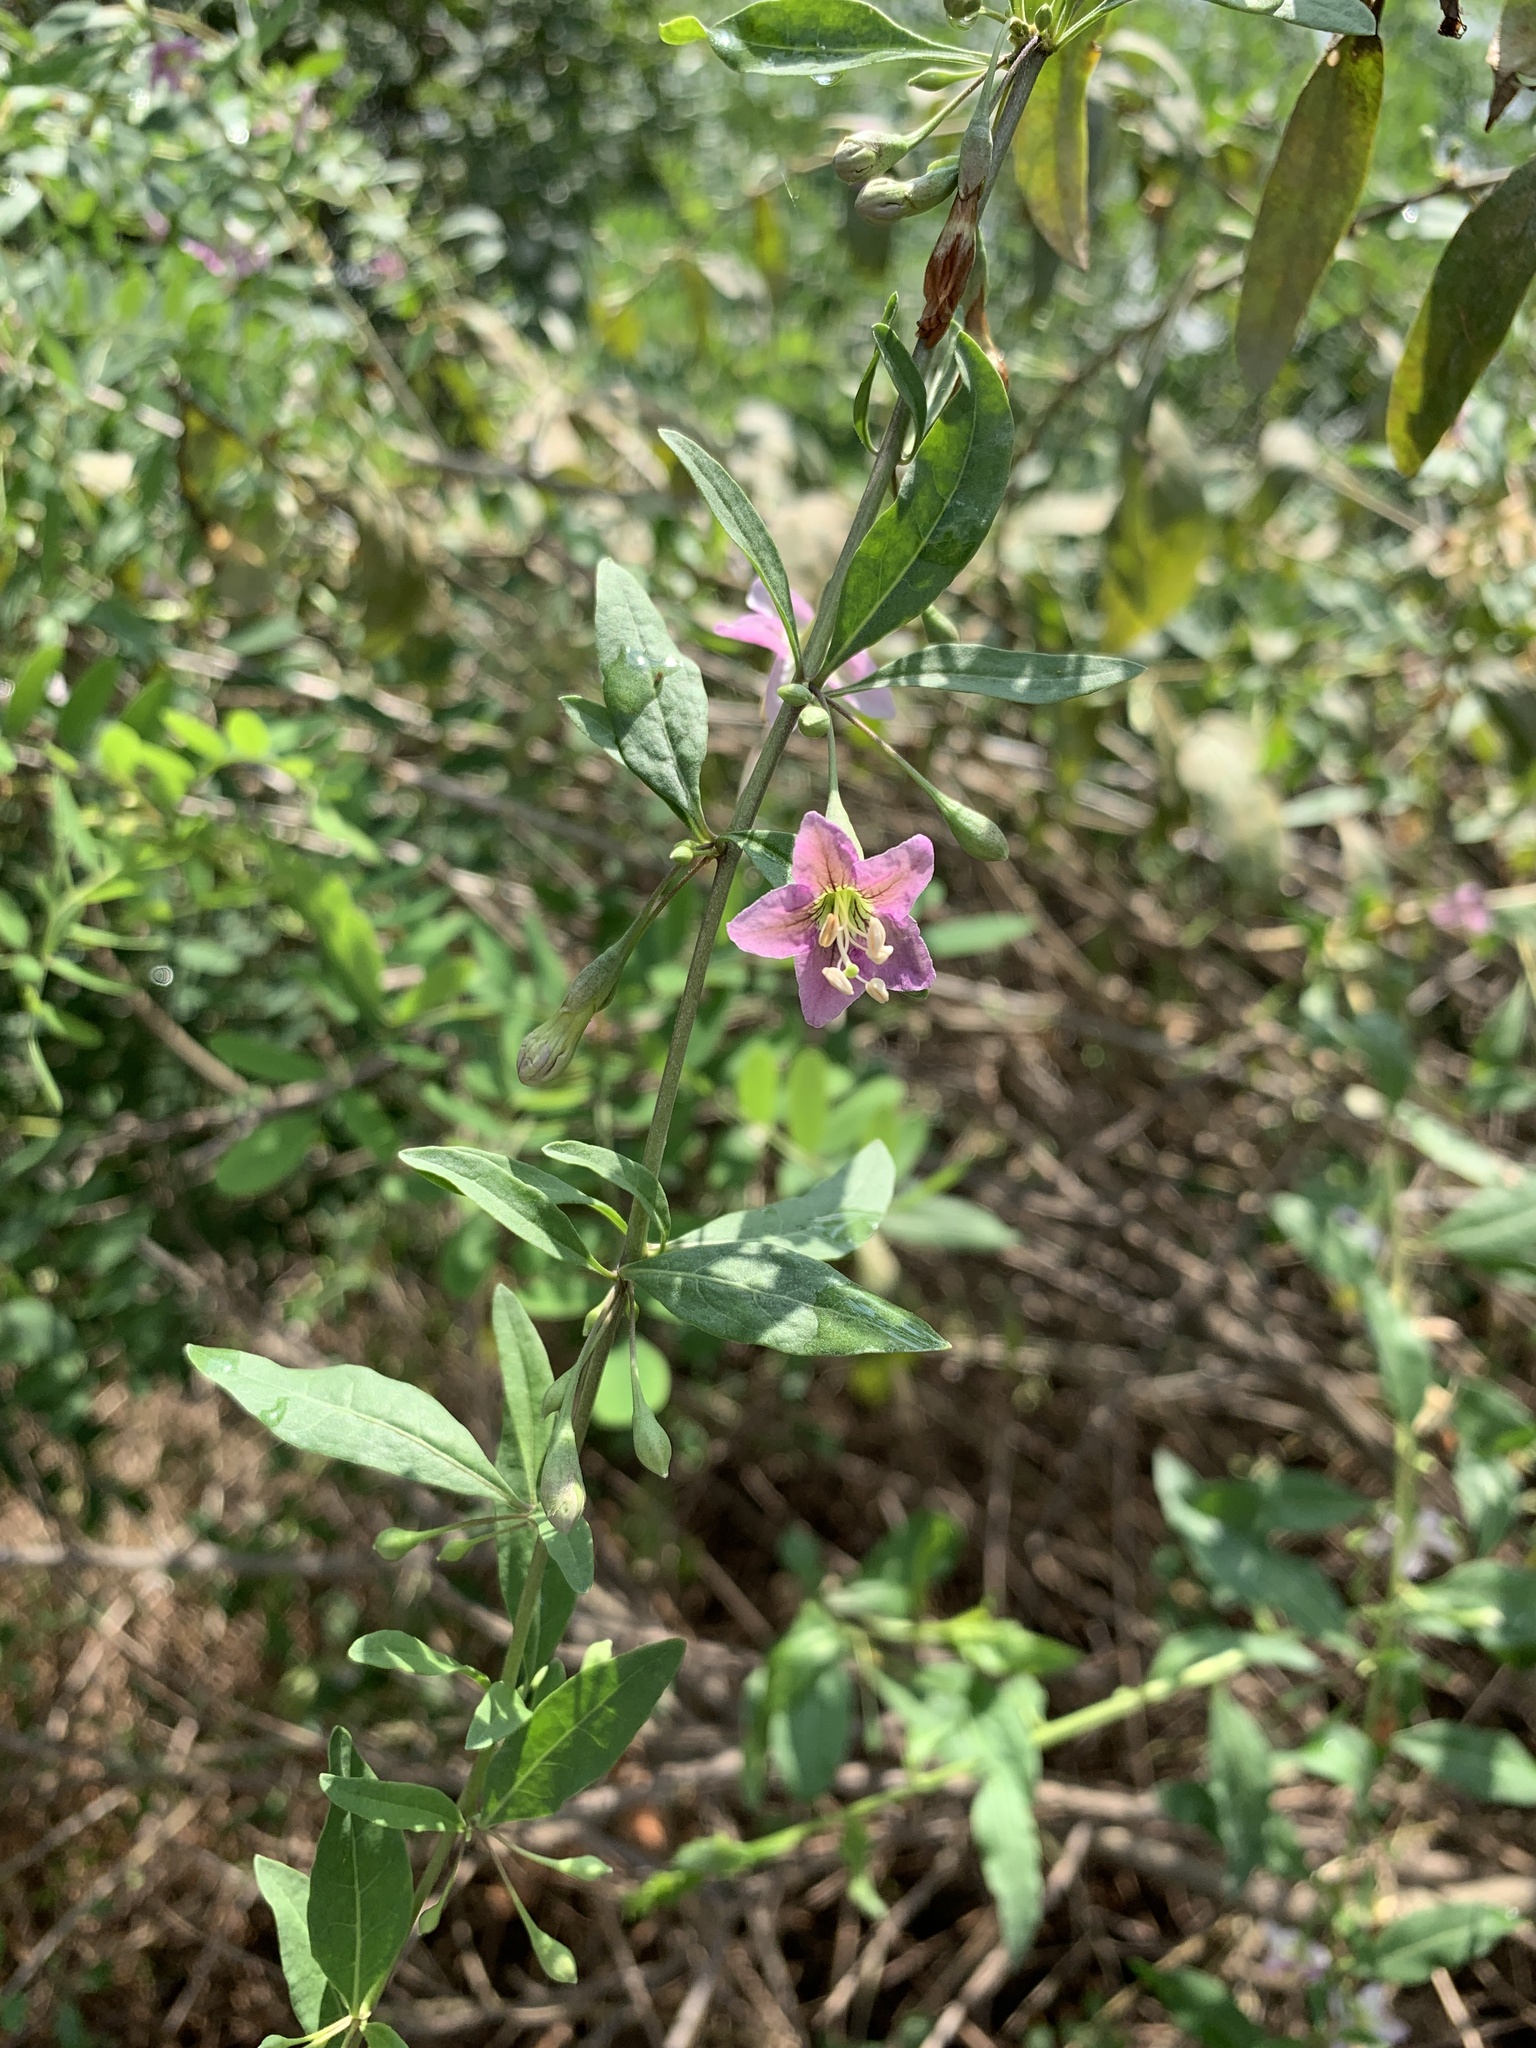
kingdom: Plantae
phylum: Tracheophyta
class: Magnoliopsida
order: Solanales
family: Solanaceae
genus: Lycium
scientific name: Lycium barbarum
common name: Duke of argyll's teaplant
